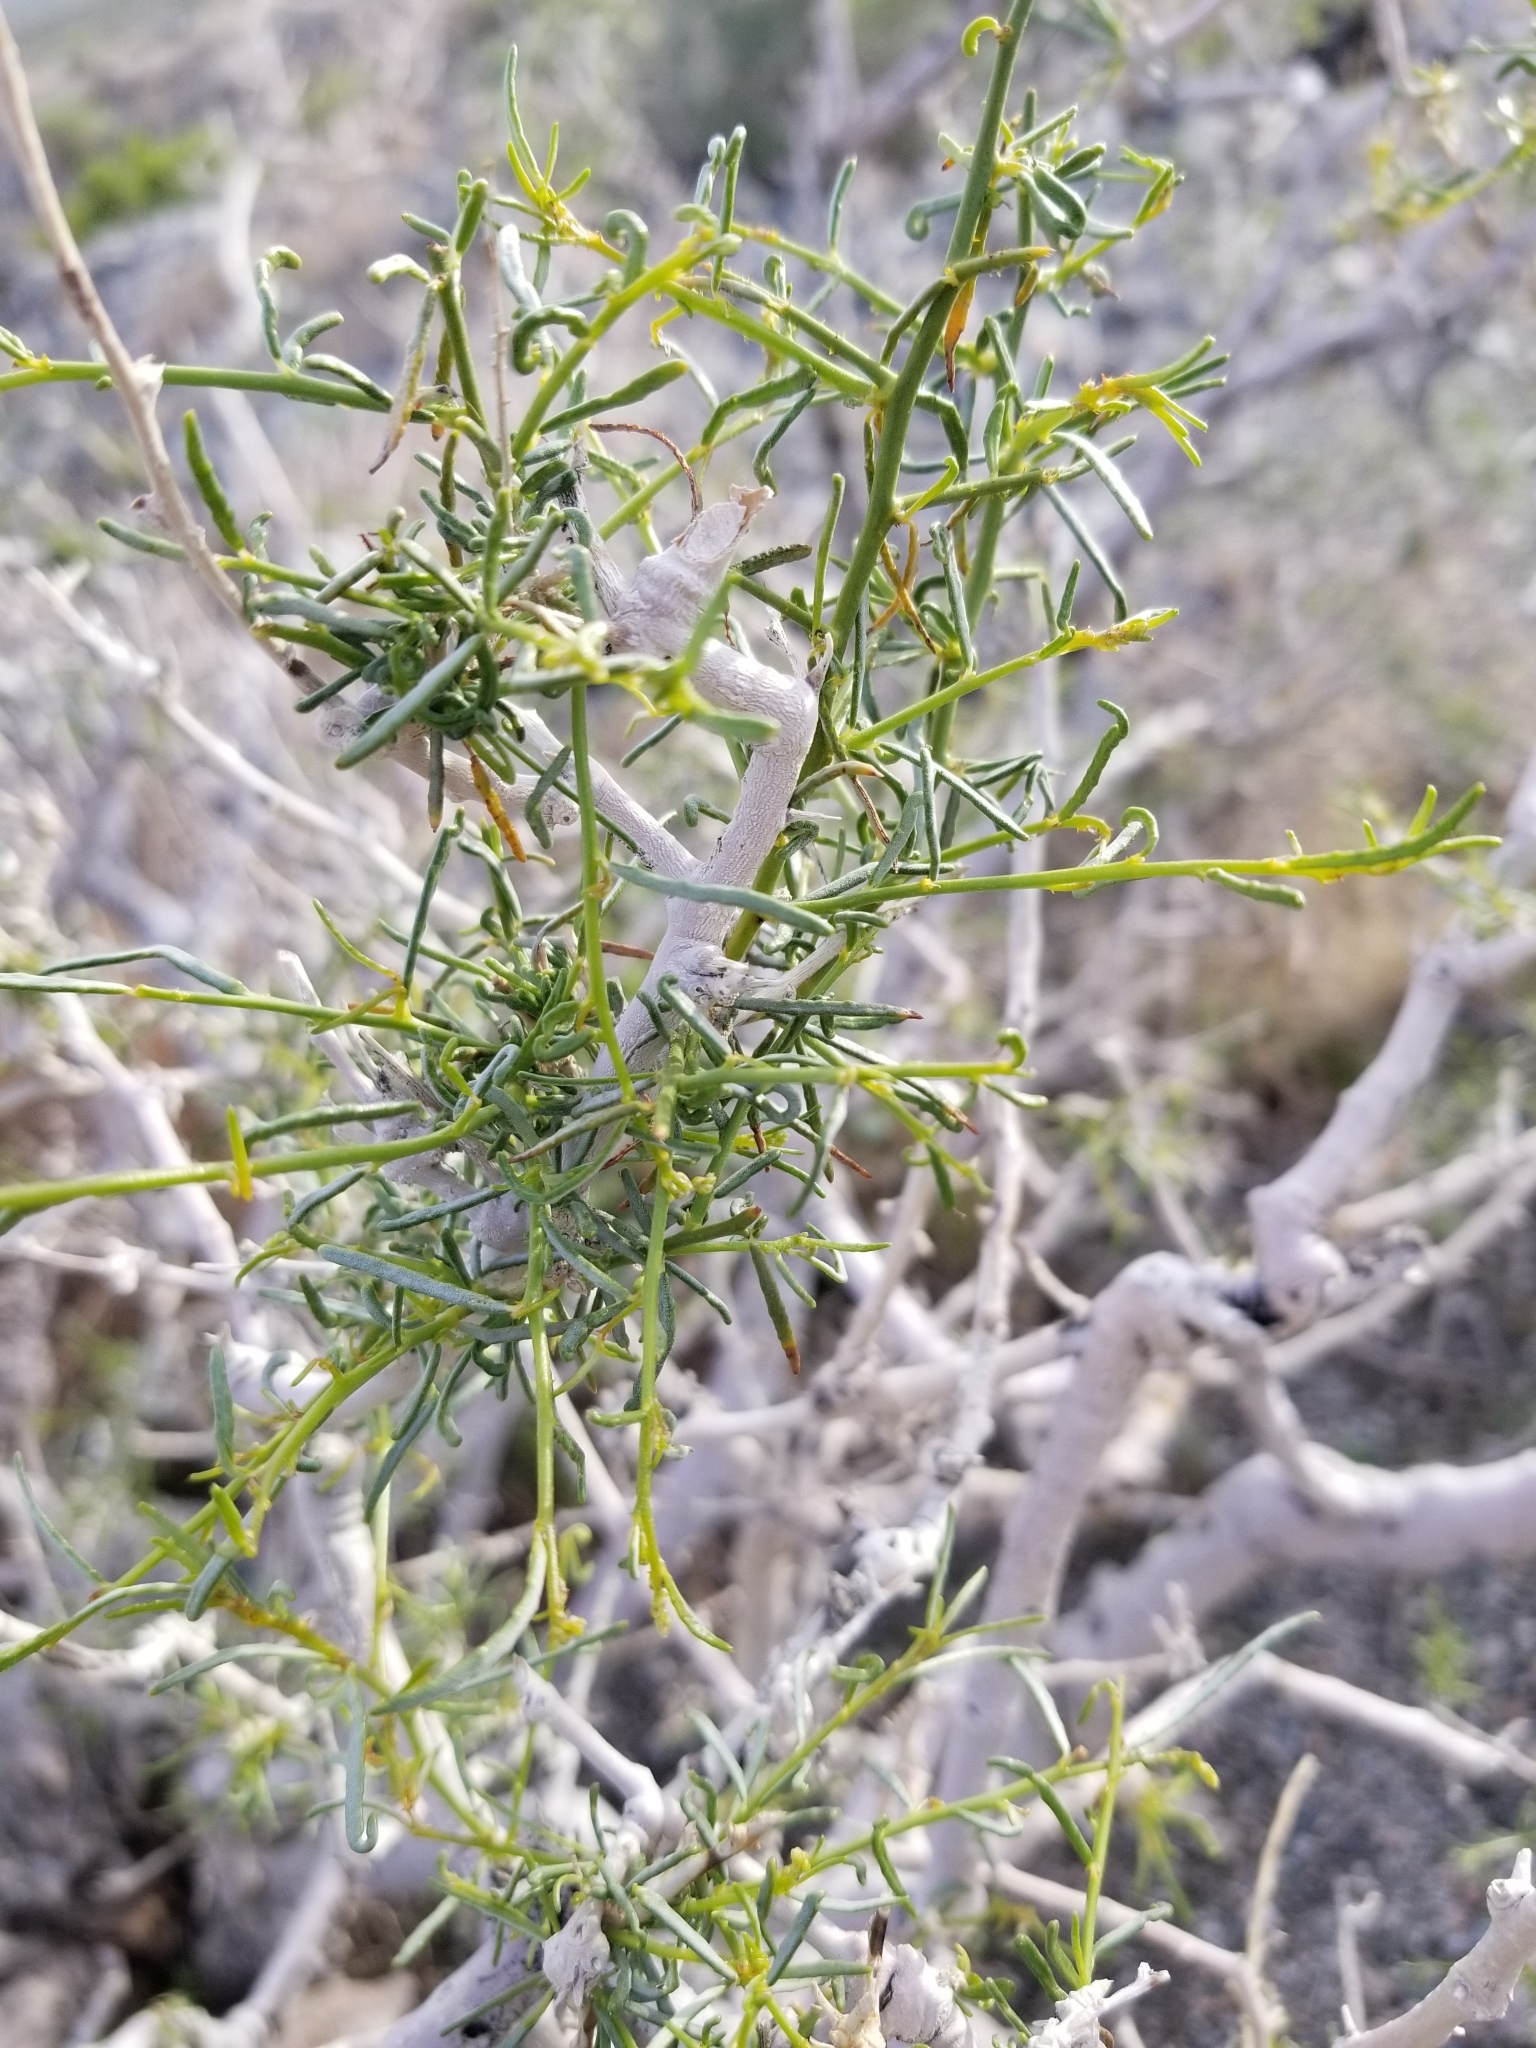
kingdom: Plantae
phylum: Tracheophyta
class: Magnoliopsida
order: Fabales
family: Fabaceae
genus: Psorothamnus
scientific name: Psorothamnus schottii
